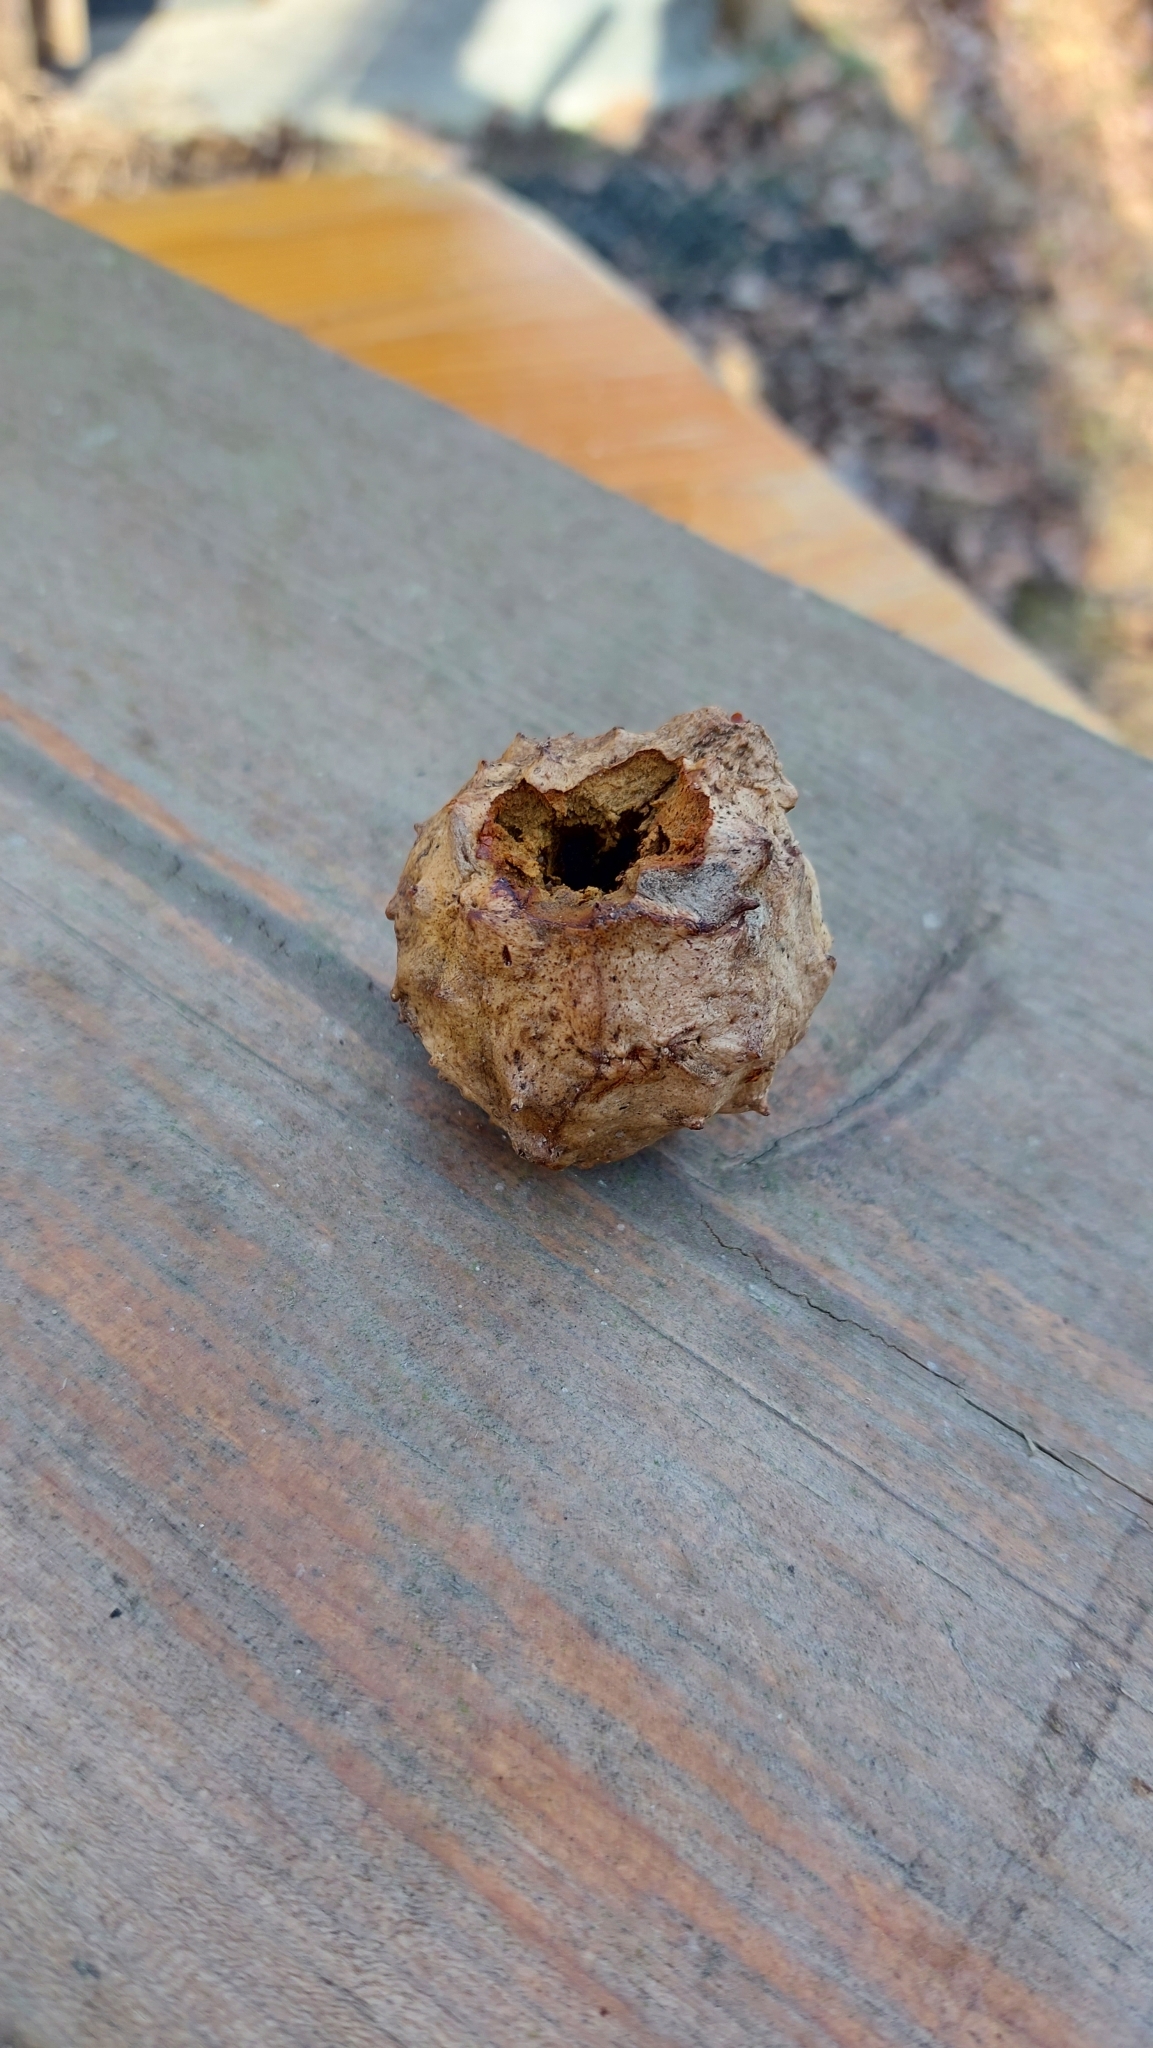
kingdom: Animalia
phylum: Arthropoda
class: Insecta
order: Hymenoptera
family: Cynipidae
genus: Andricus
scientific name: Andricus hungaricus
